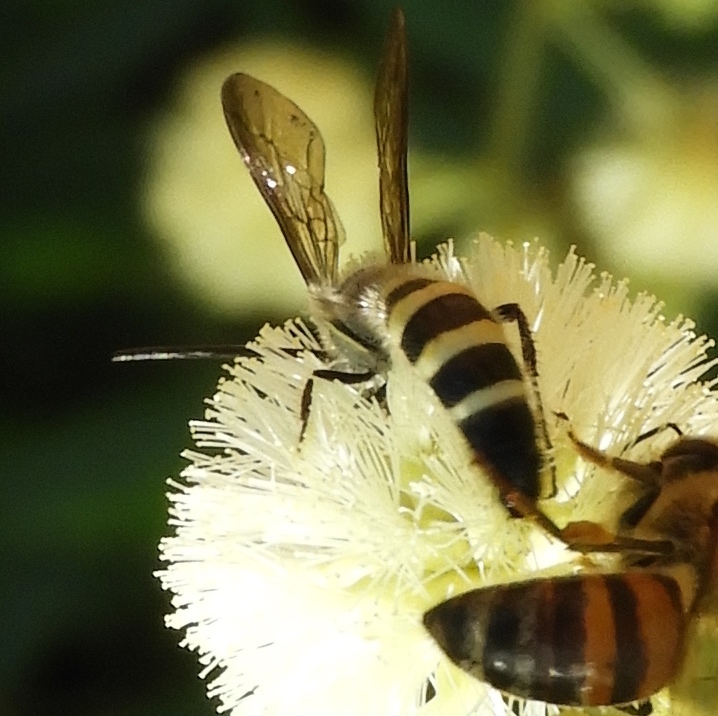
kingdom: Animalia
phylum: Arthropoda
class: Insecta
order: Hymenoptera
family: Scoliidae
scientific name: Scoliidae
